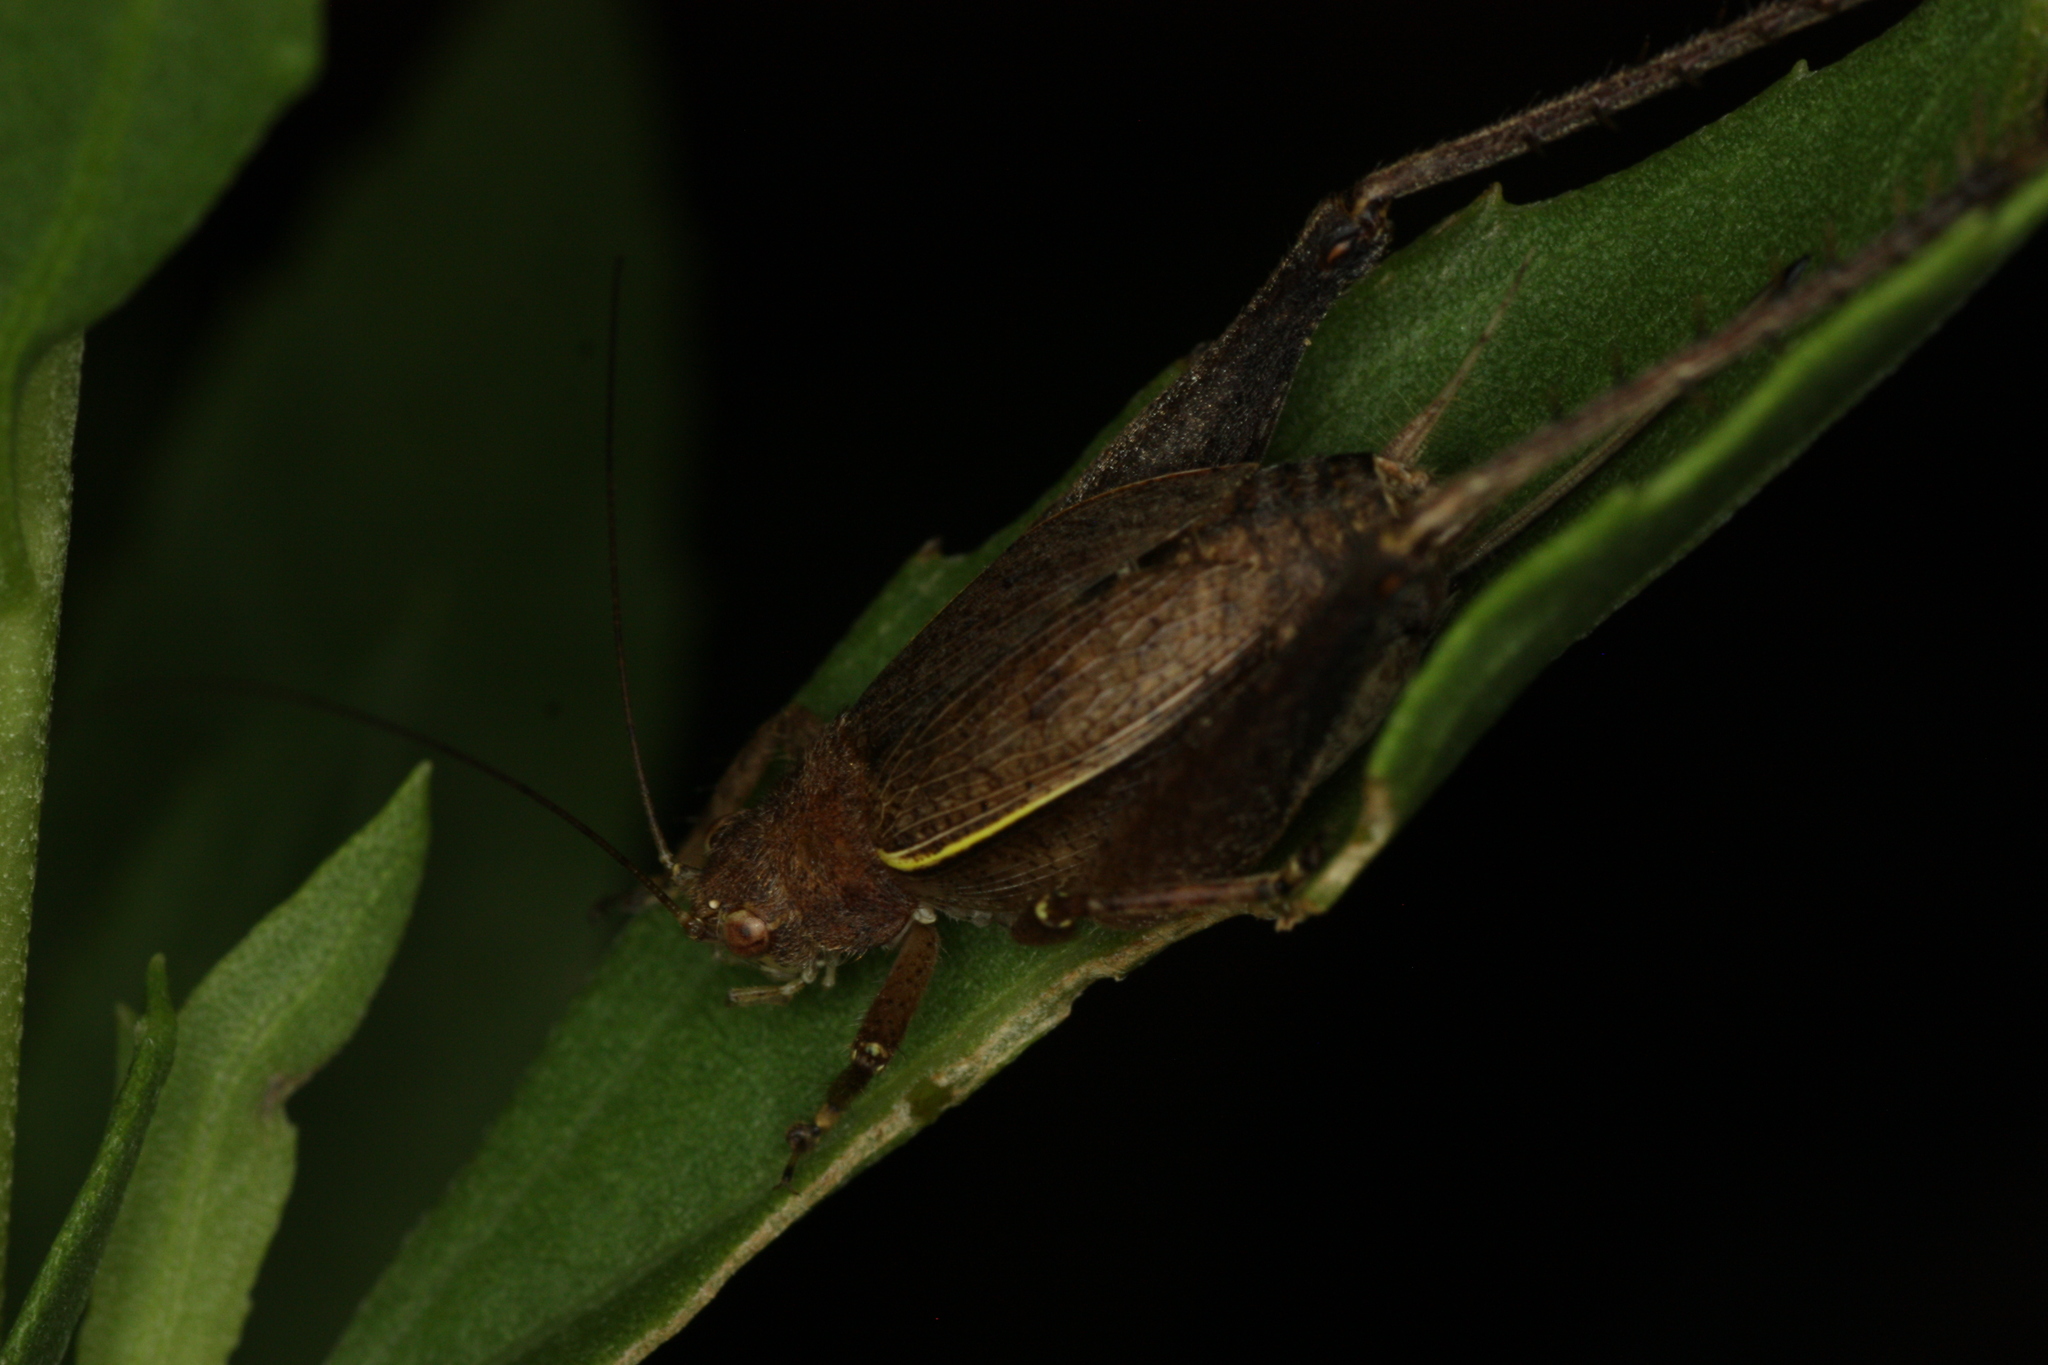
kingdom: Animalia
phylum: Arthropoda
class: Insecta
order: Orthoptera
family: Gryllidae
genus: Hapithus
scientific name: Hapithus agitator
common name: Restless bush cricket
